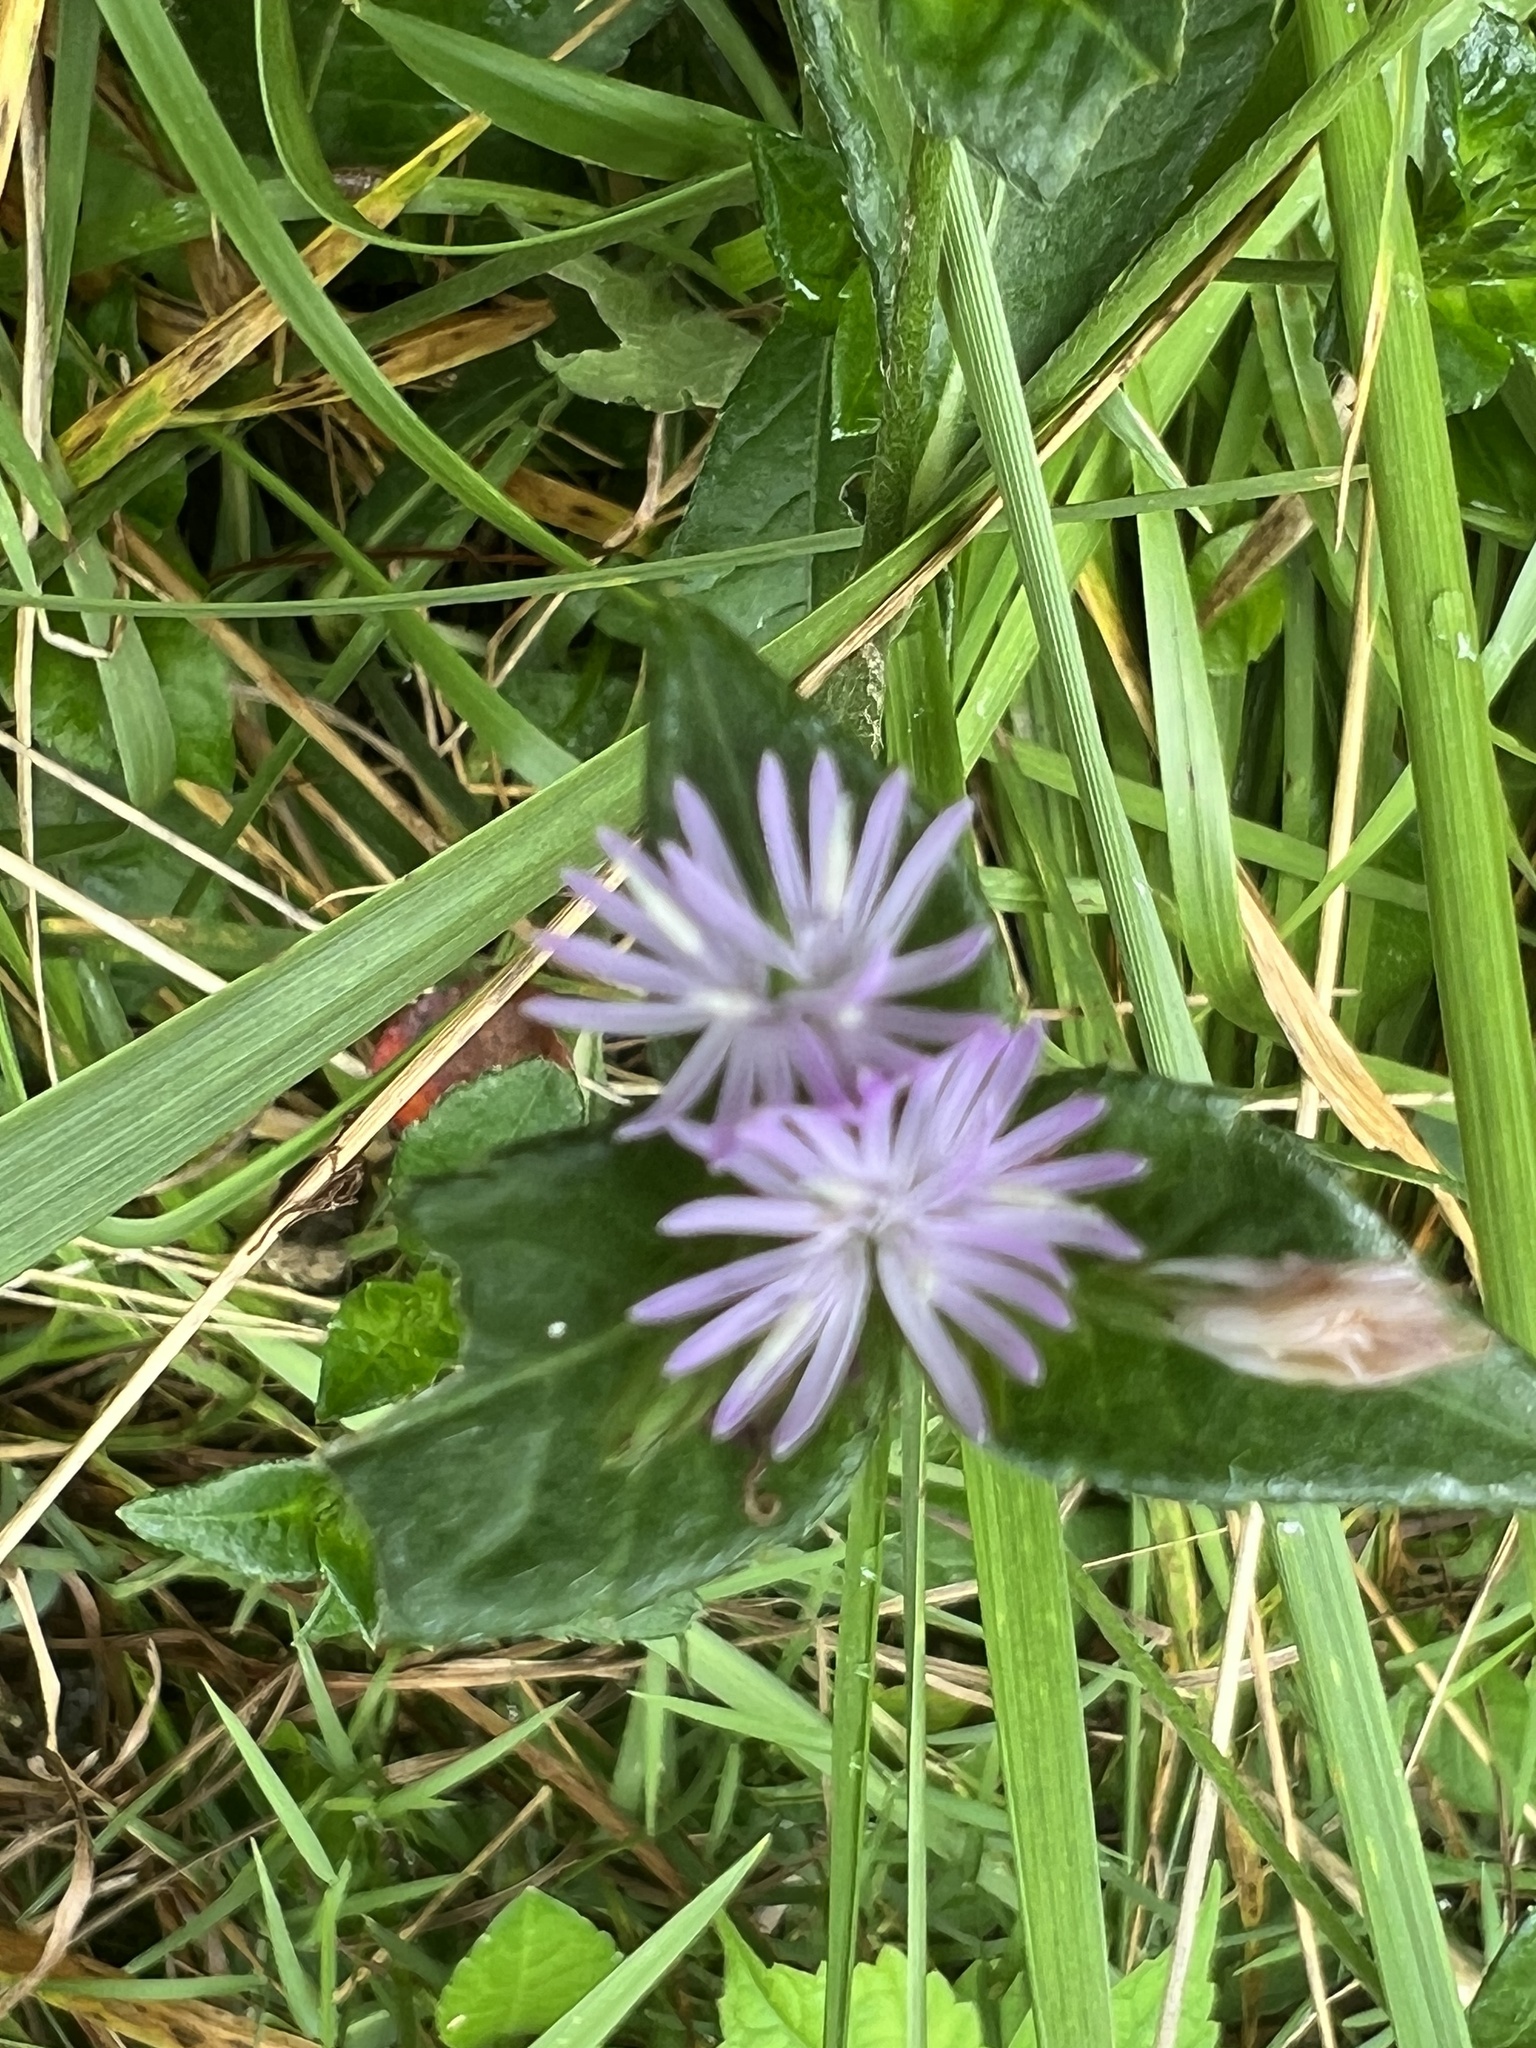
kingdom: Plantae
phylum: Tracheophyta
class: Magnoliopsida
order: Asterales
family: Asteraceae
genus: Elephantopus
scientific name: Elephantopus carolinianus
